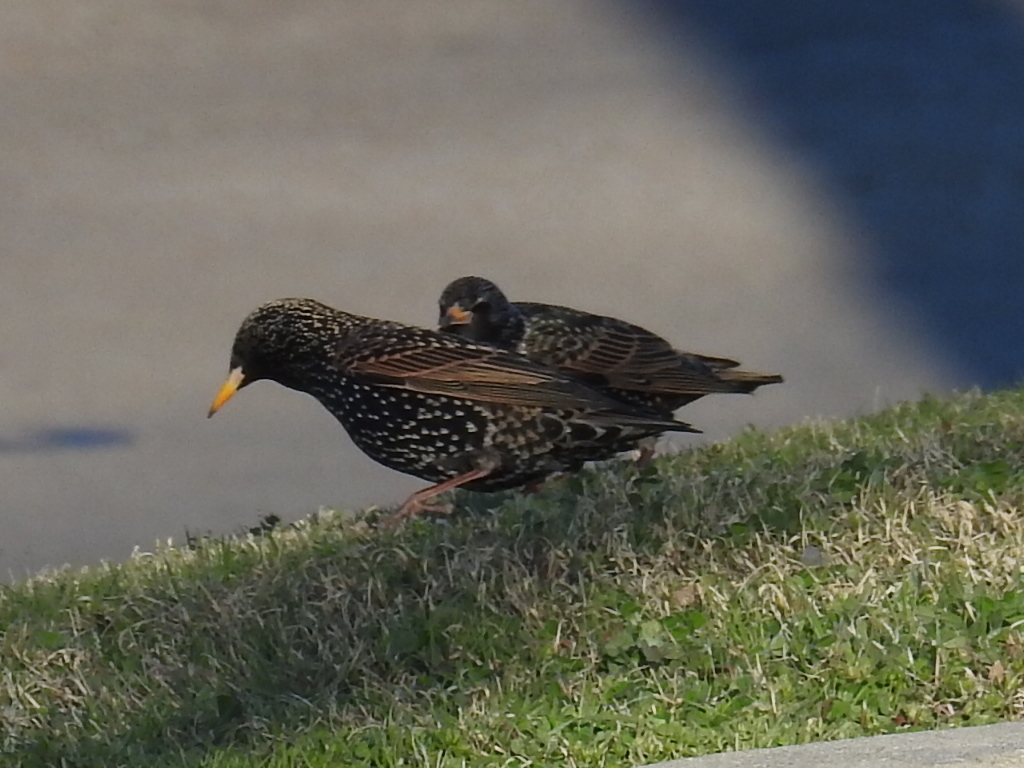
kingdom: Animalia
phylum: Chordata
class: Aves
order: Passeriformes
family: Sturnidae
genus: Sturnus
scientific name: Sturnus vulgaris
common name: Common starling
